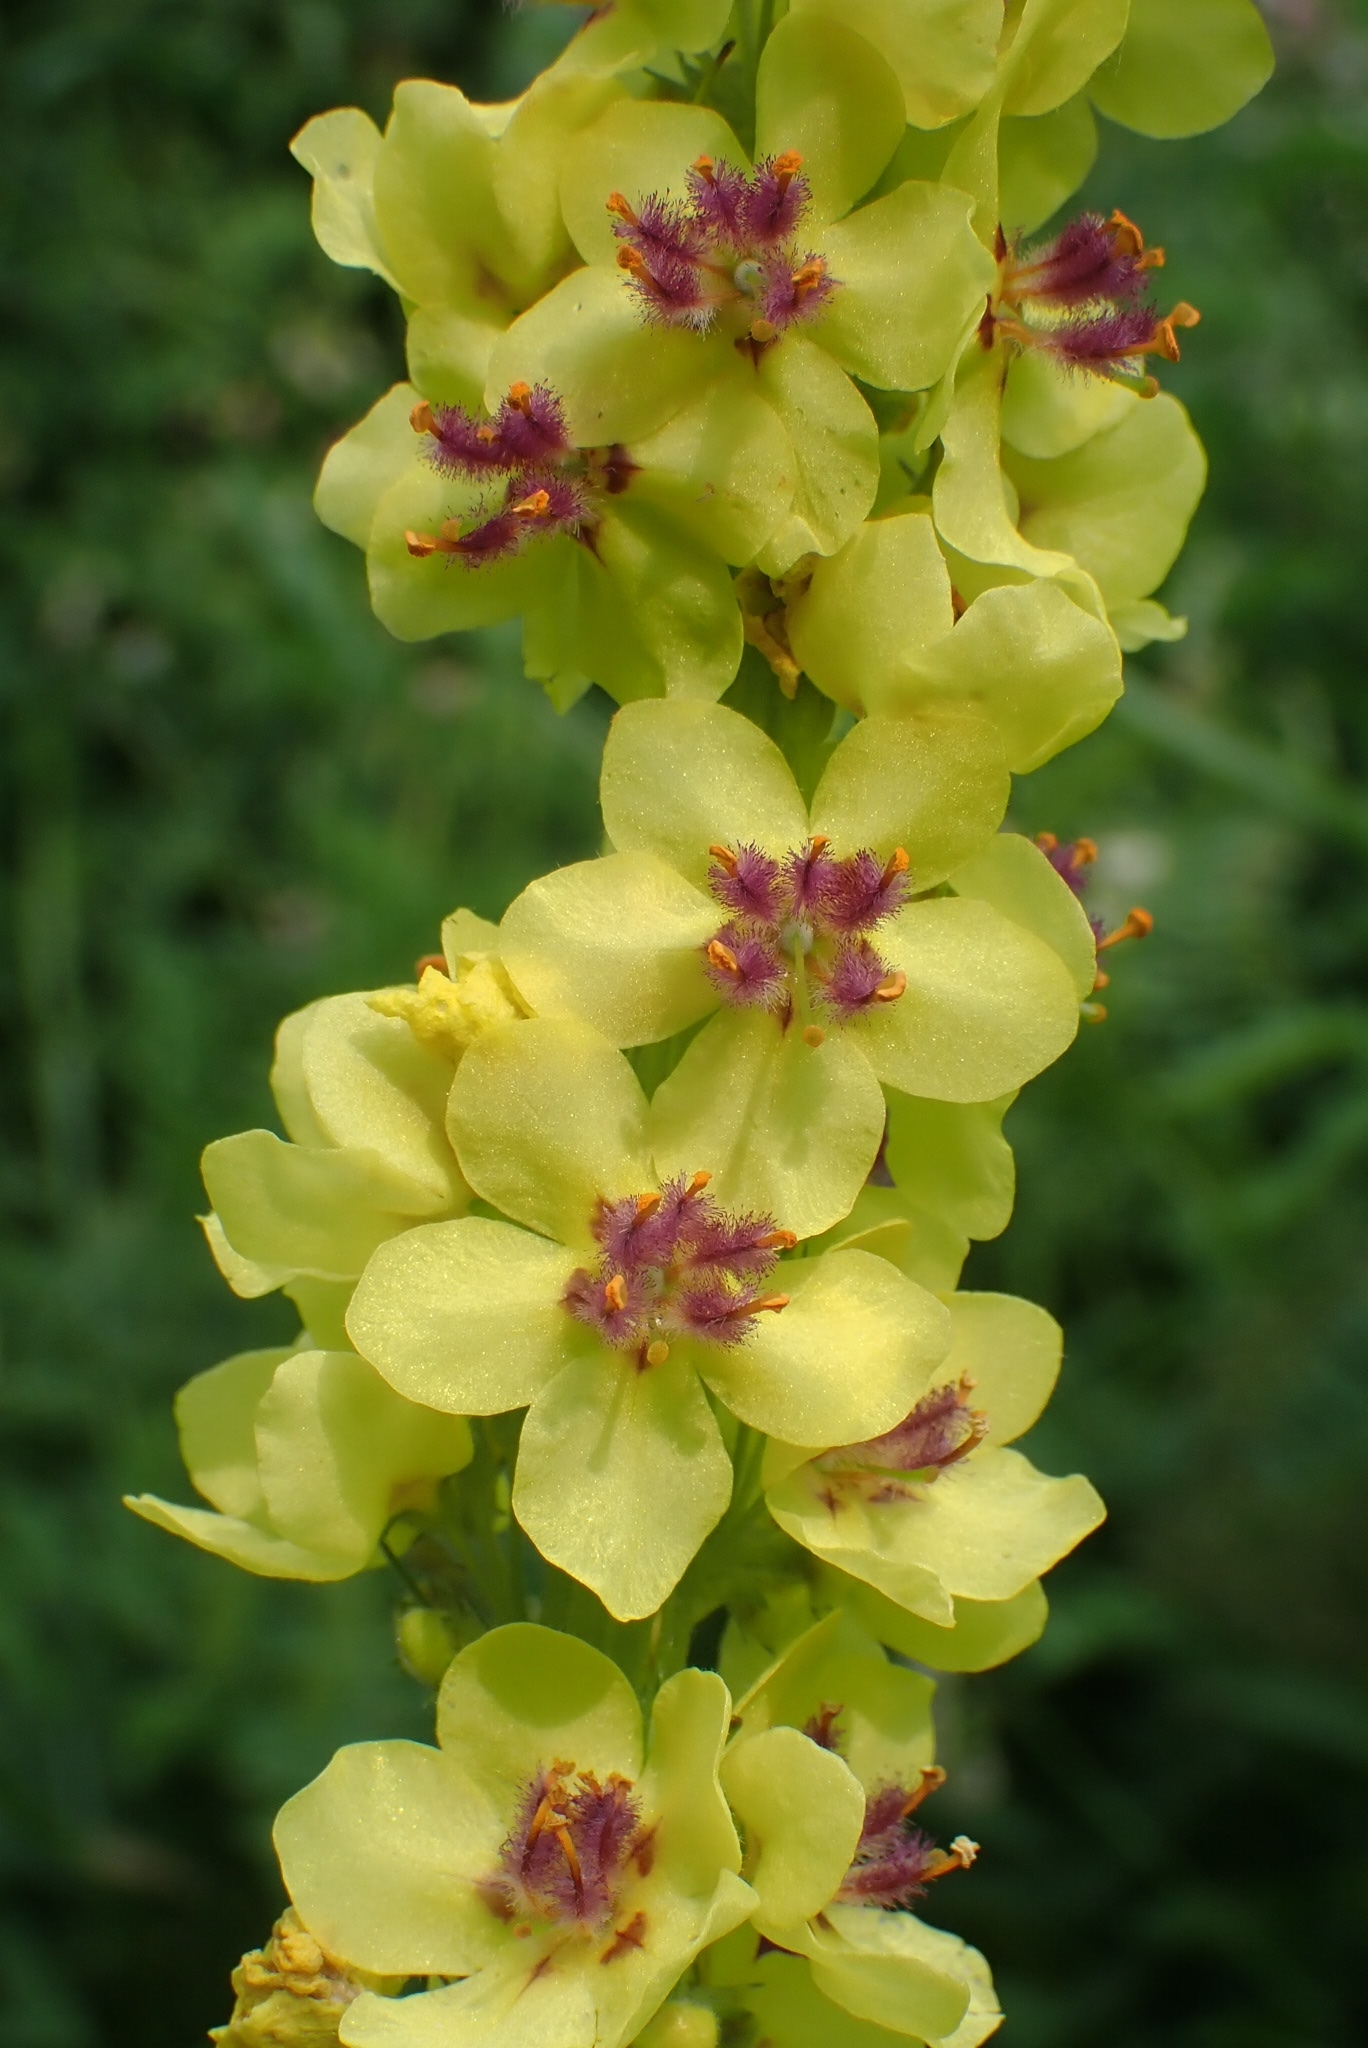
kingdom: Plantae
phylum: Tracheophyta
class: Magnoliopsida
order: Lamiales
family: Scrophulariaceae
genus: Verbascum
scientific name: Verbascum nigrum
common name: Dark mullein
